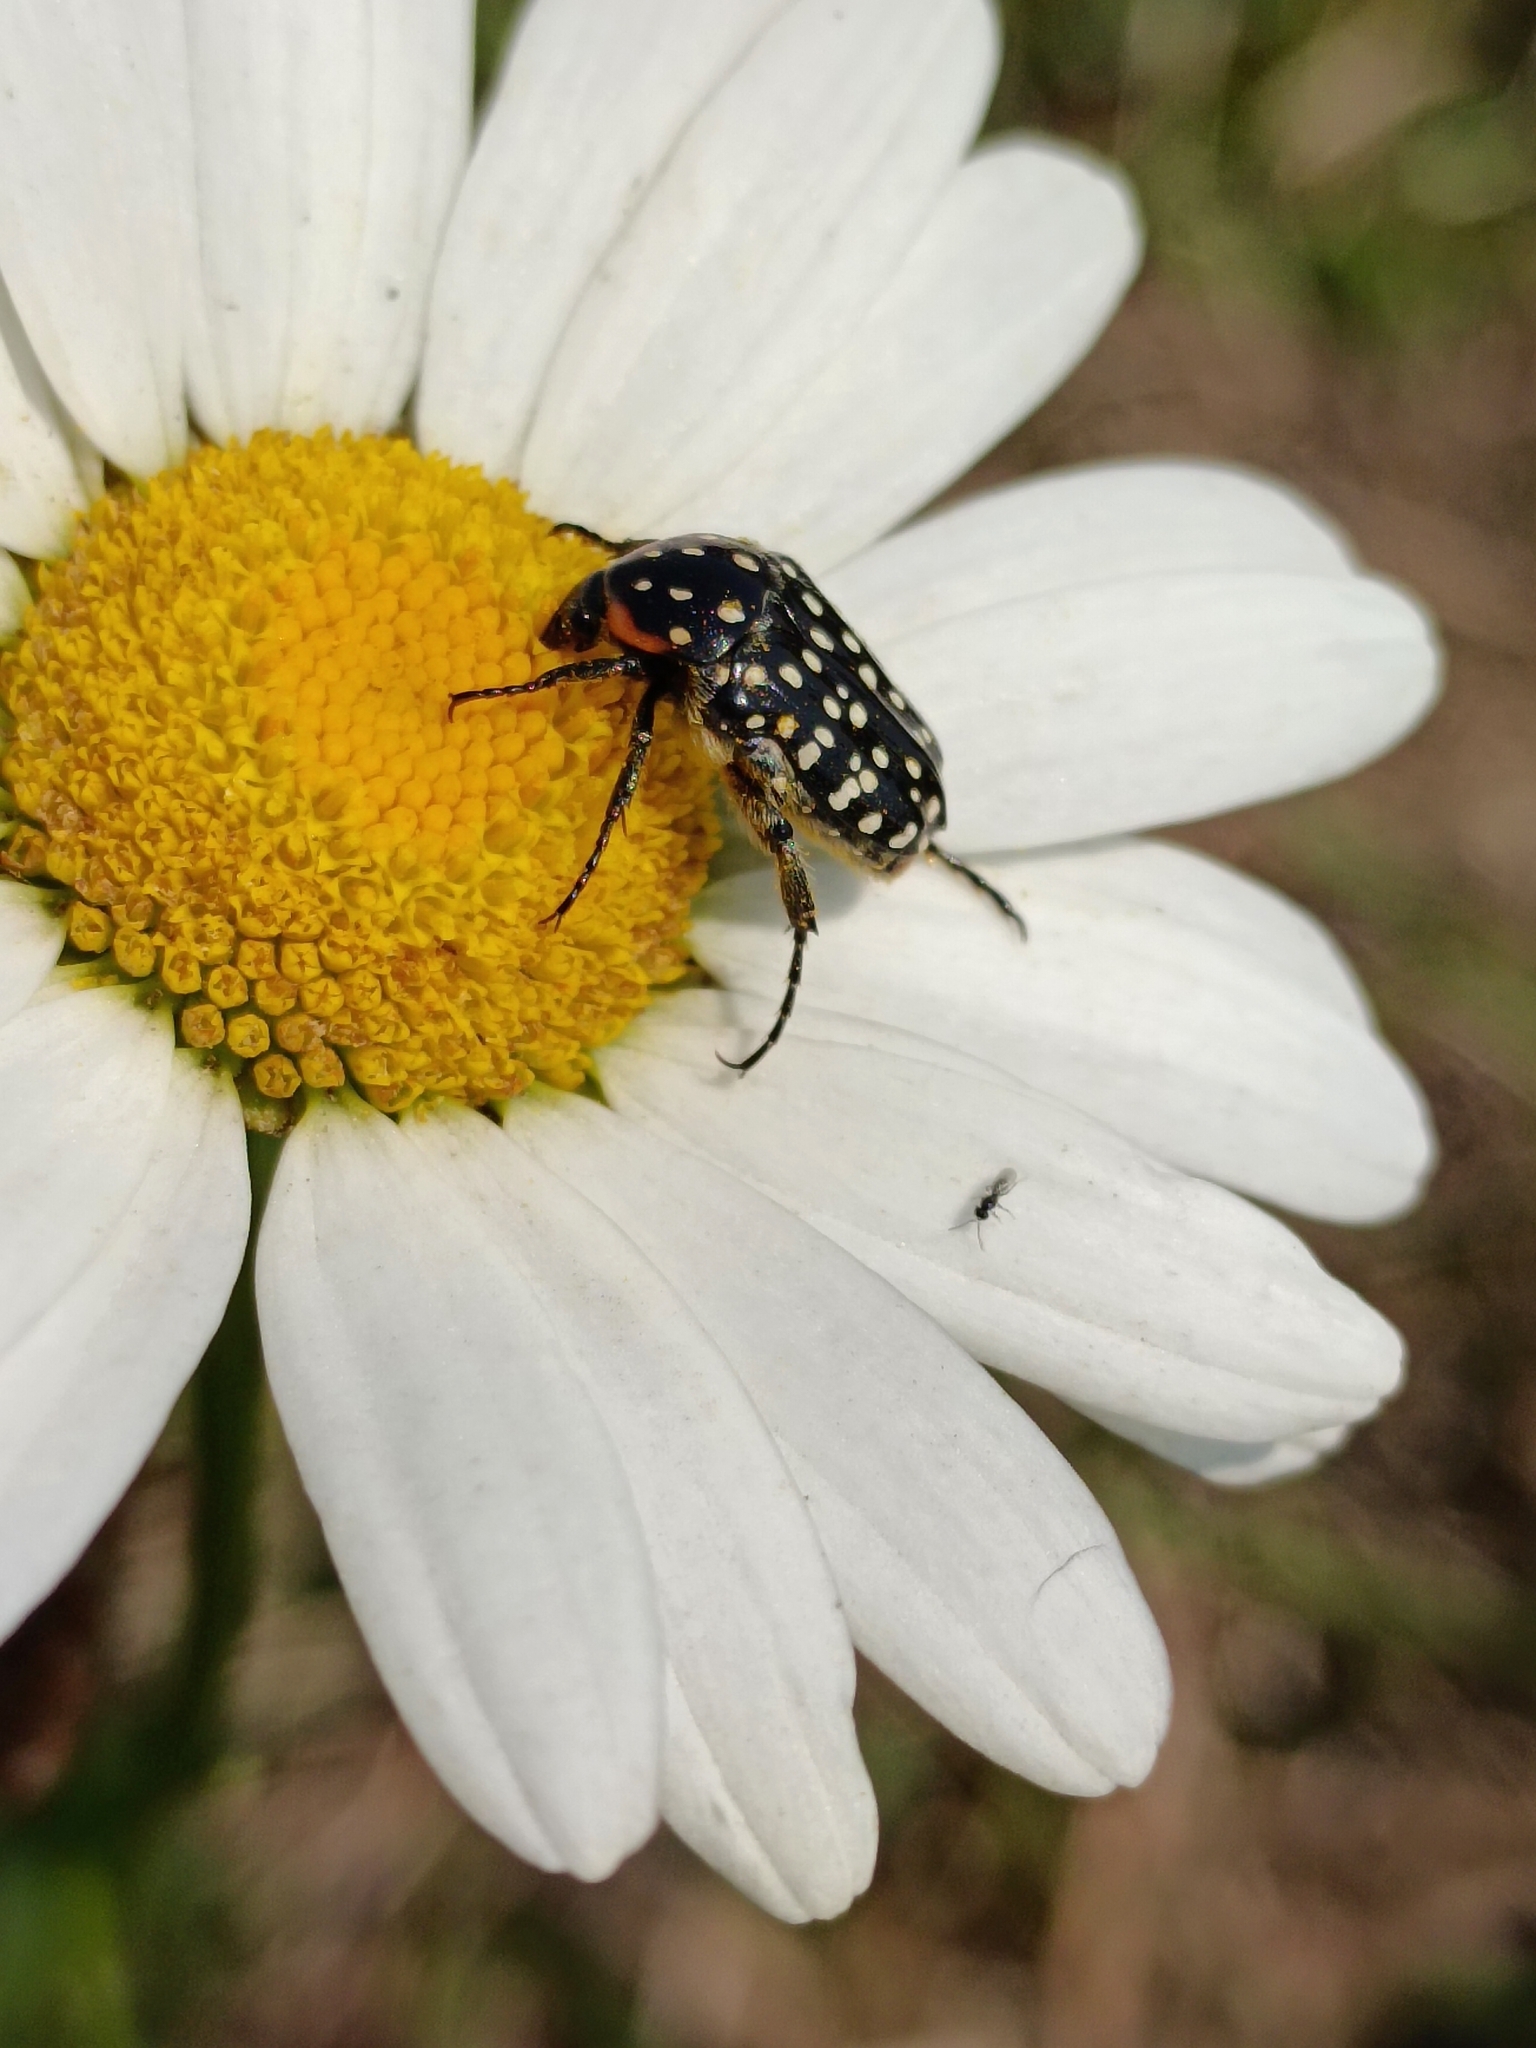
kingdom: Animalia
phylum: Arthropoda
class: Insecta
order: Coleoptera
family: Scarabaeidae
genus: Oxythyrea
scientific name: Oxythyrea
